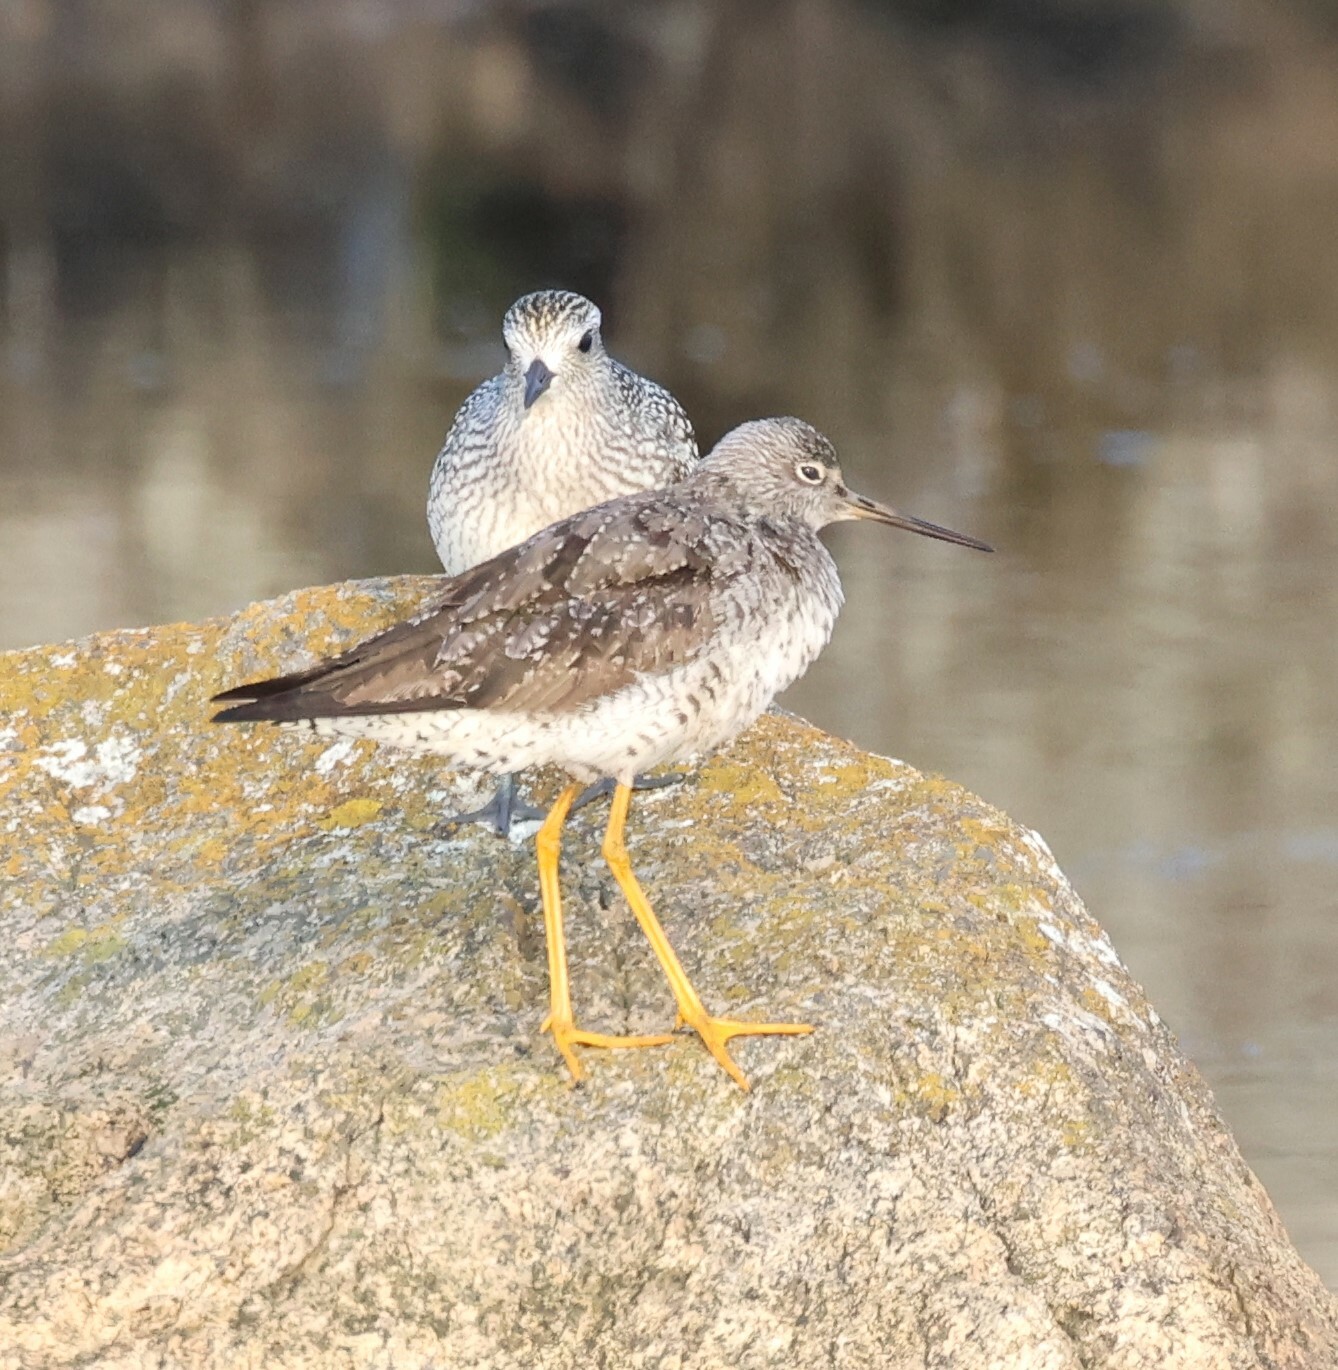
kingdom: Animalia
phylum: Chordata
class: Aves
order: Charadriiformes
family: Scolopacidae
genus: Tringa
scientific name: Tringa melanoleuca
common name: Greater yellowlegs
